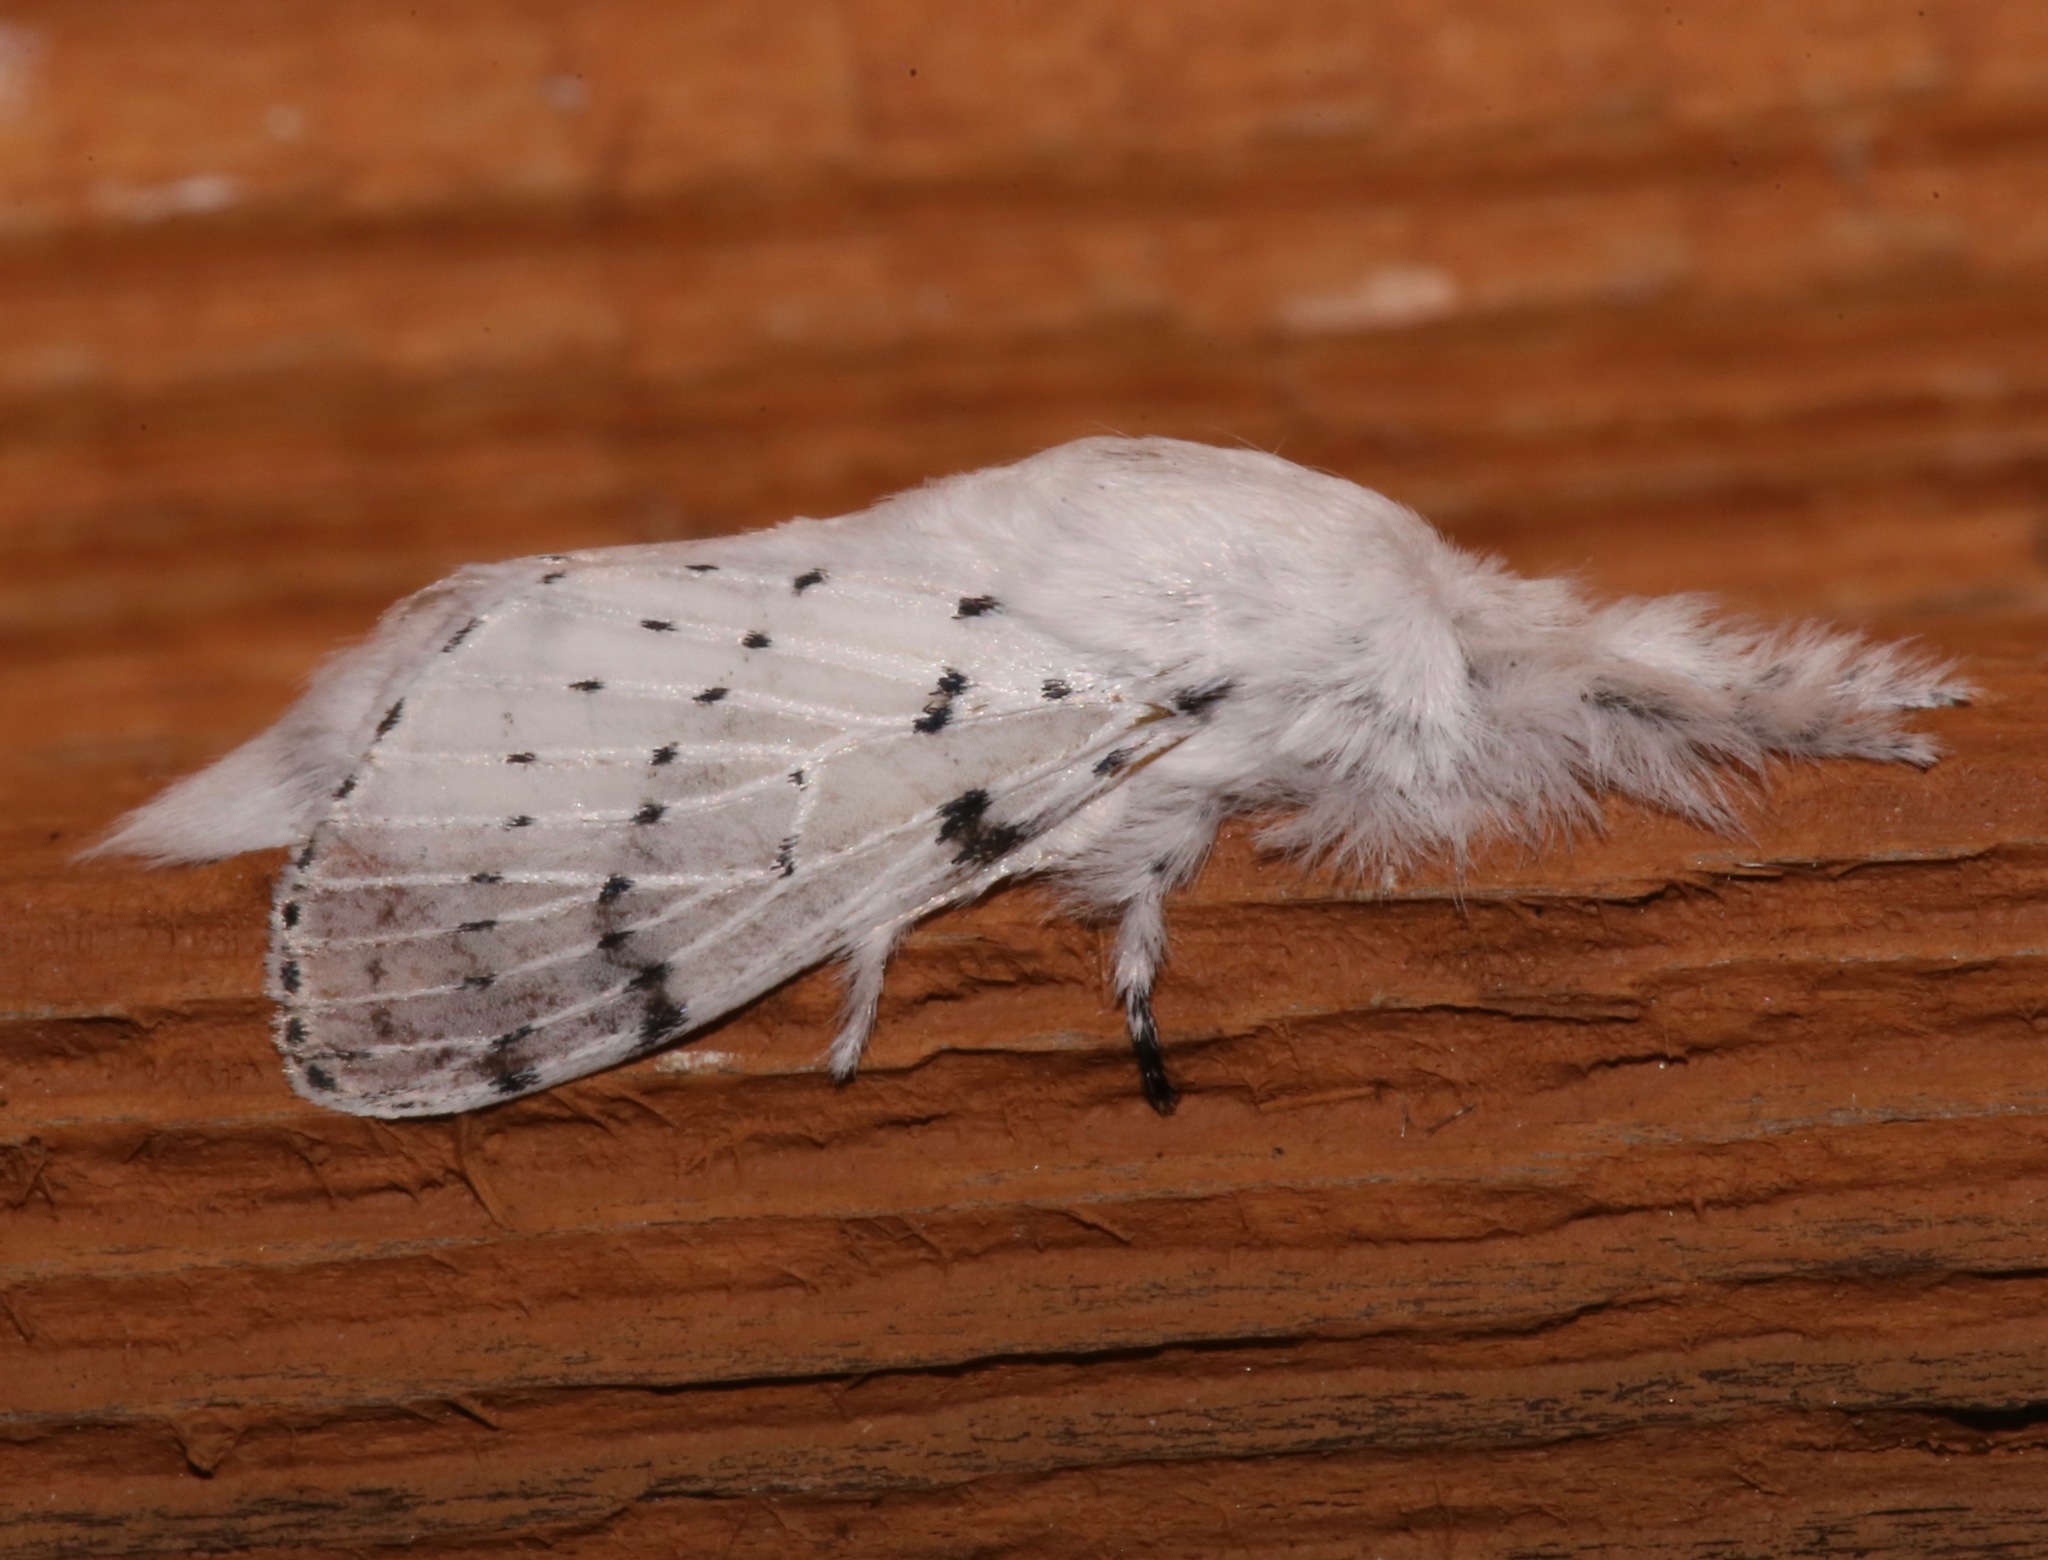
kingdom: Animalia
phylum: Arthropoda
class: Insecta
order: Lepidoptera
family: Lasiocampidae
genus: Artace
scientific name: Artace cribrarius
